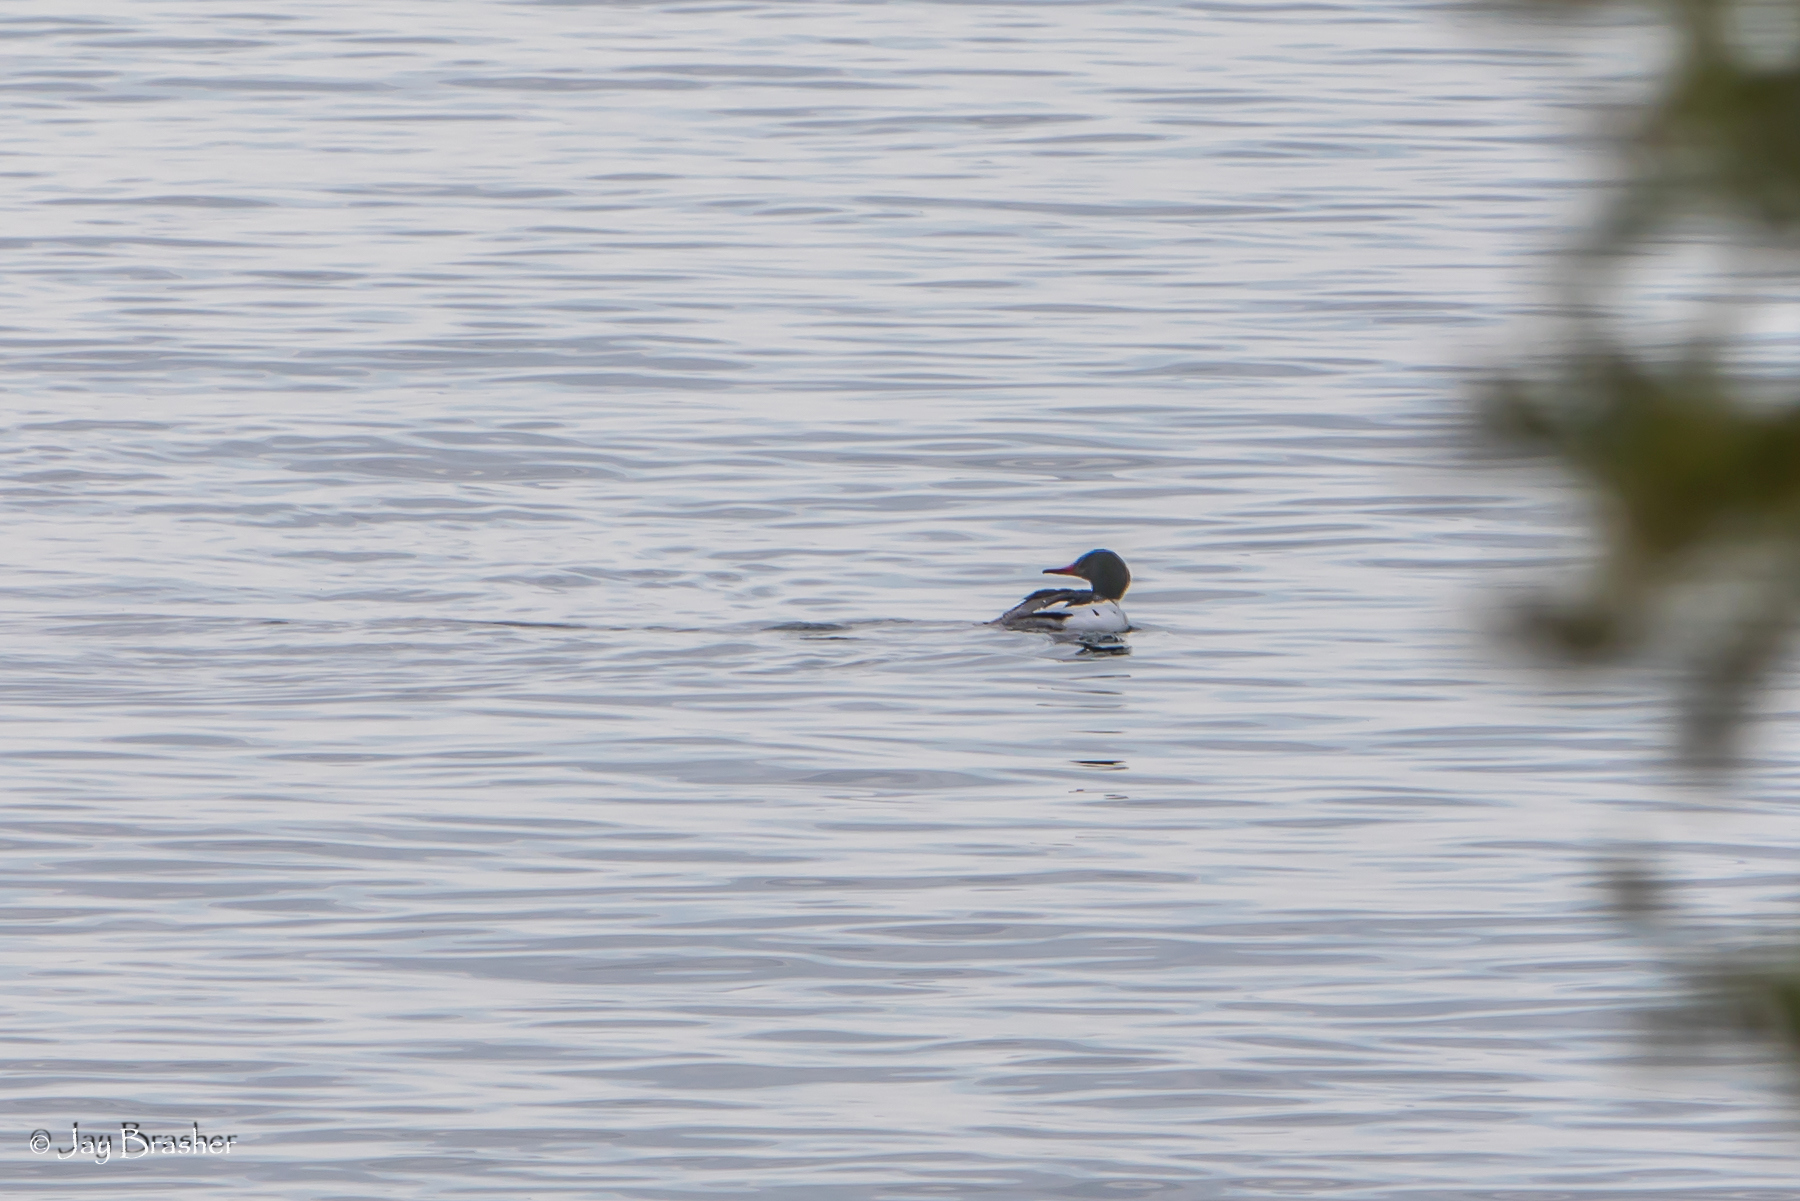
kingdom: Animalia
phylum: Chordata
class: Aves
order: Anseriformes
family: Anatidae
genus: Mergus
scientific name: Mergus merganser
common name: Common merganser
